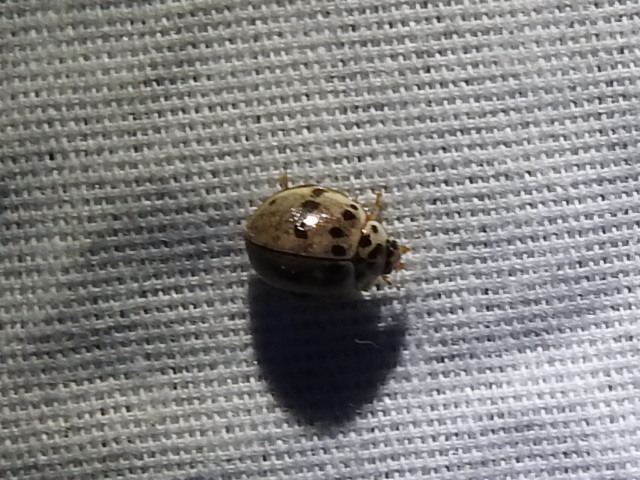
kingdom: Animalia
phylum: Arthropoda
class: Insecta
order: Coleoptera
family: Coccinellidae
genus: Olla
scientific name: Olla v-nigrum
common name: Ashy gray lady beetle
